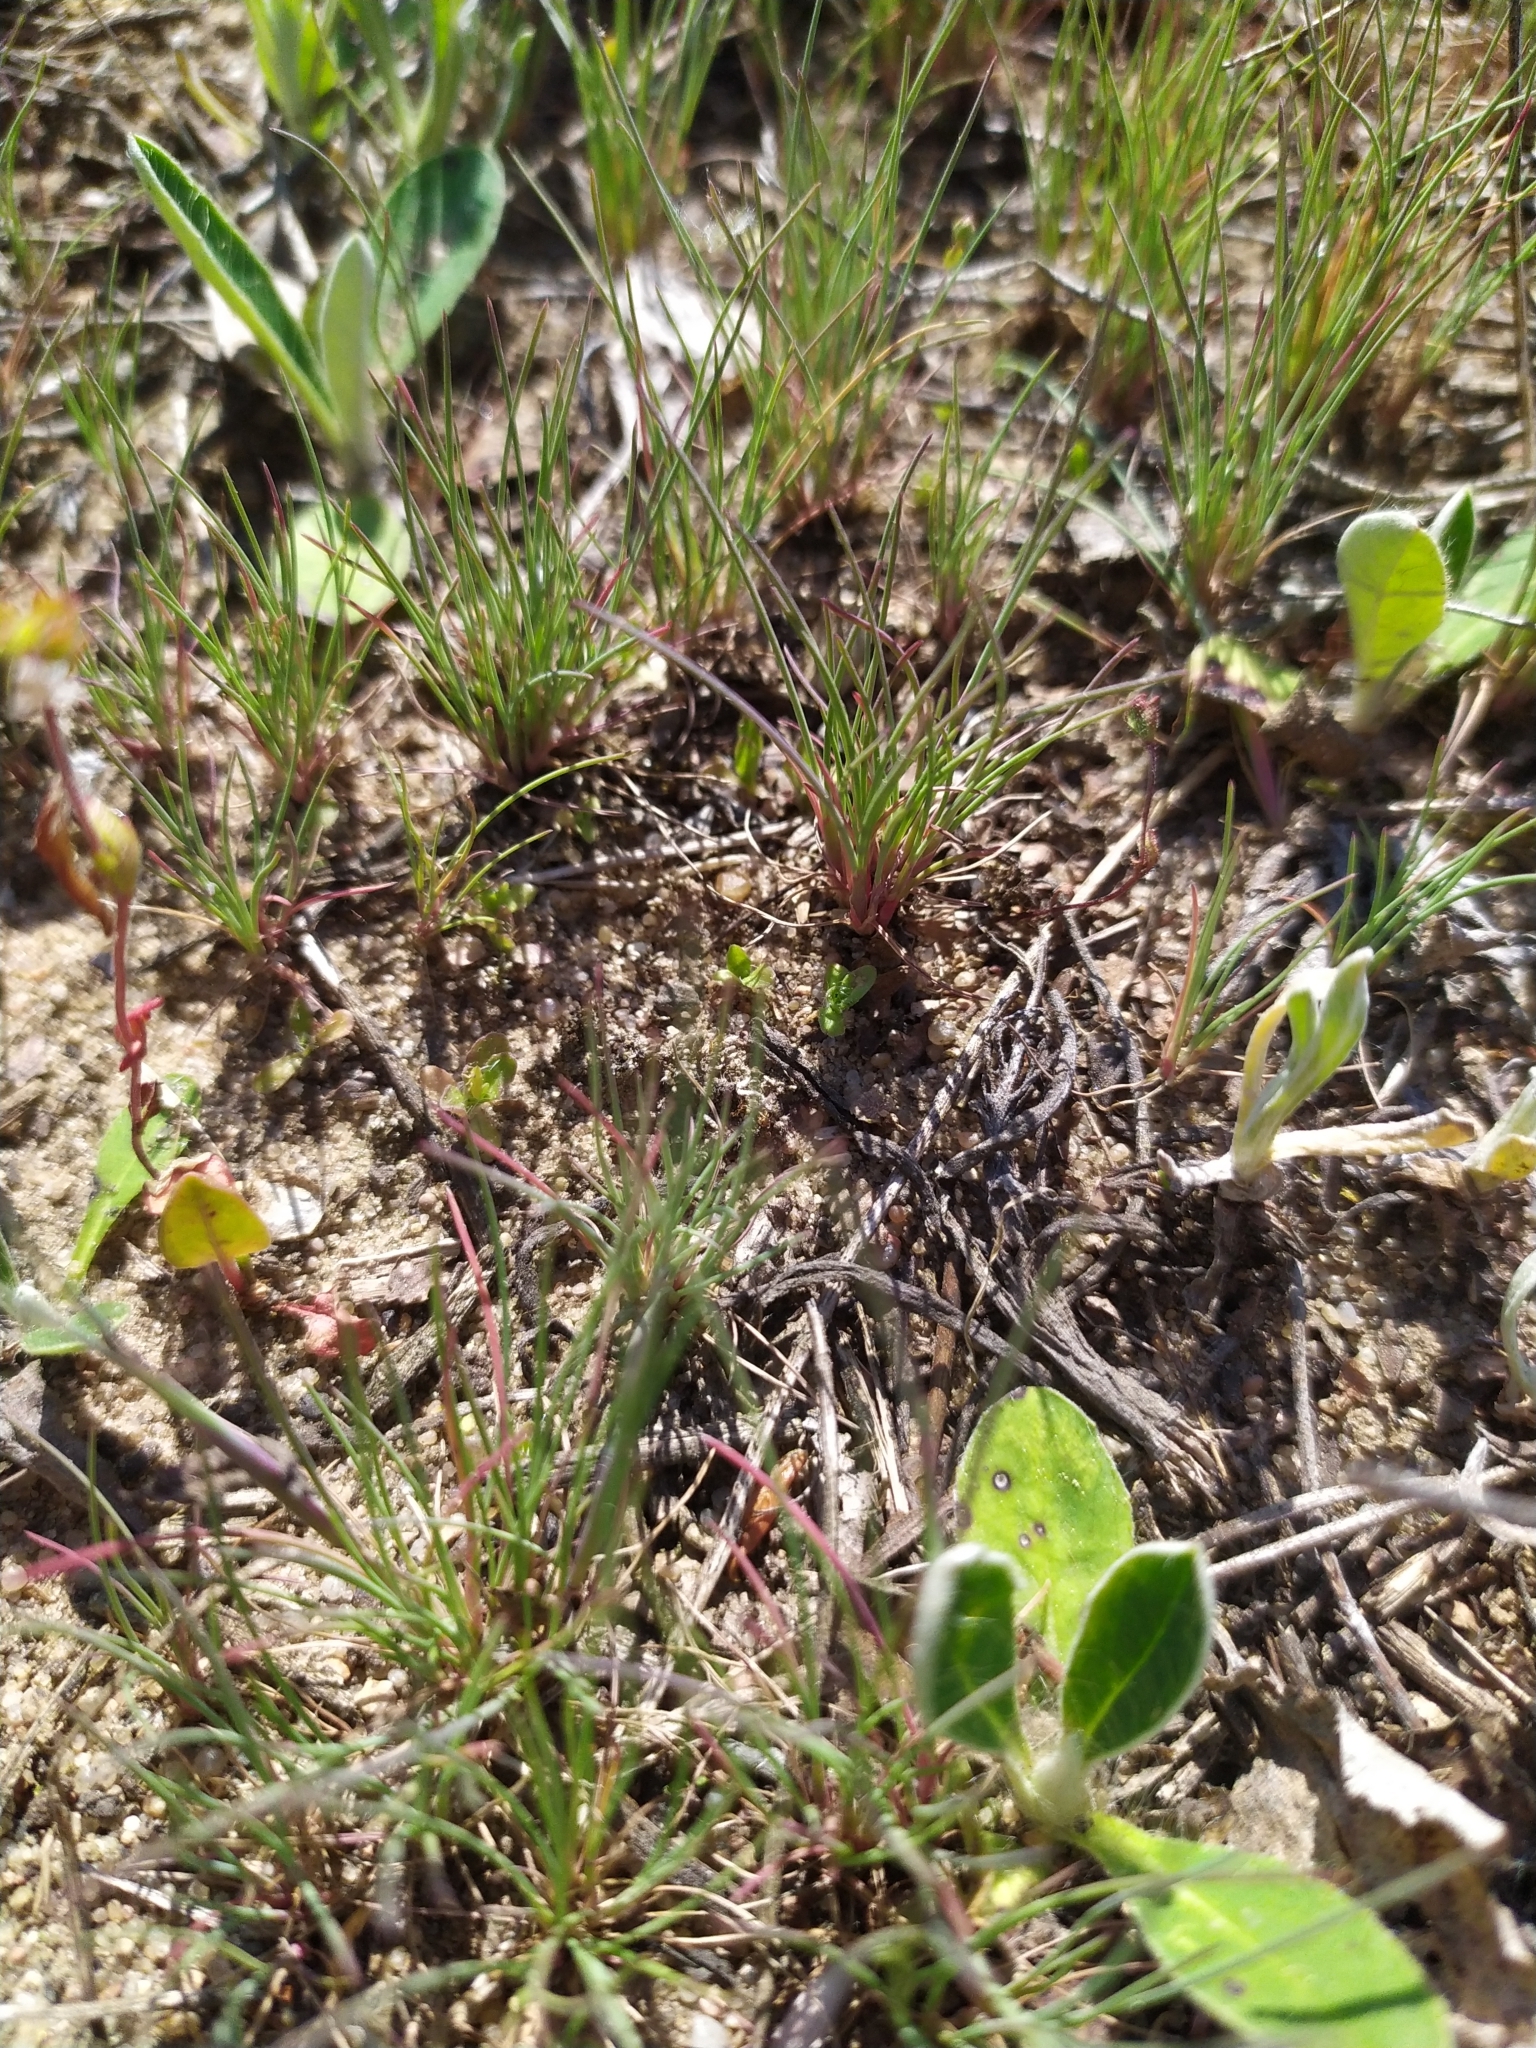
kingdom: Plantae
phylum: Tracheophyta
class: Liliopsida
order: Poales
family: Poaceae
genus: Corynephorus
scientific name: Corynephorus canescens
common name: Grey hair-grass
